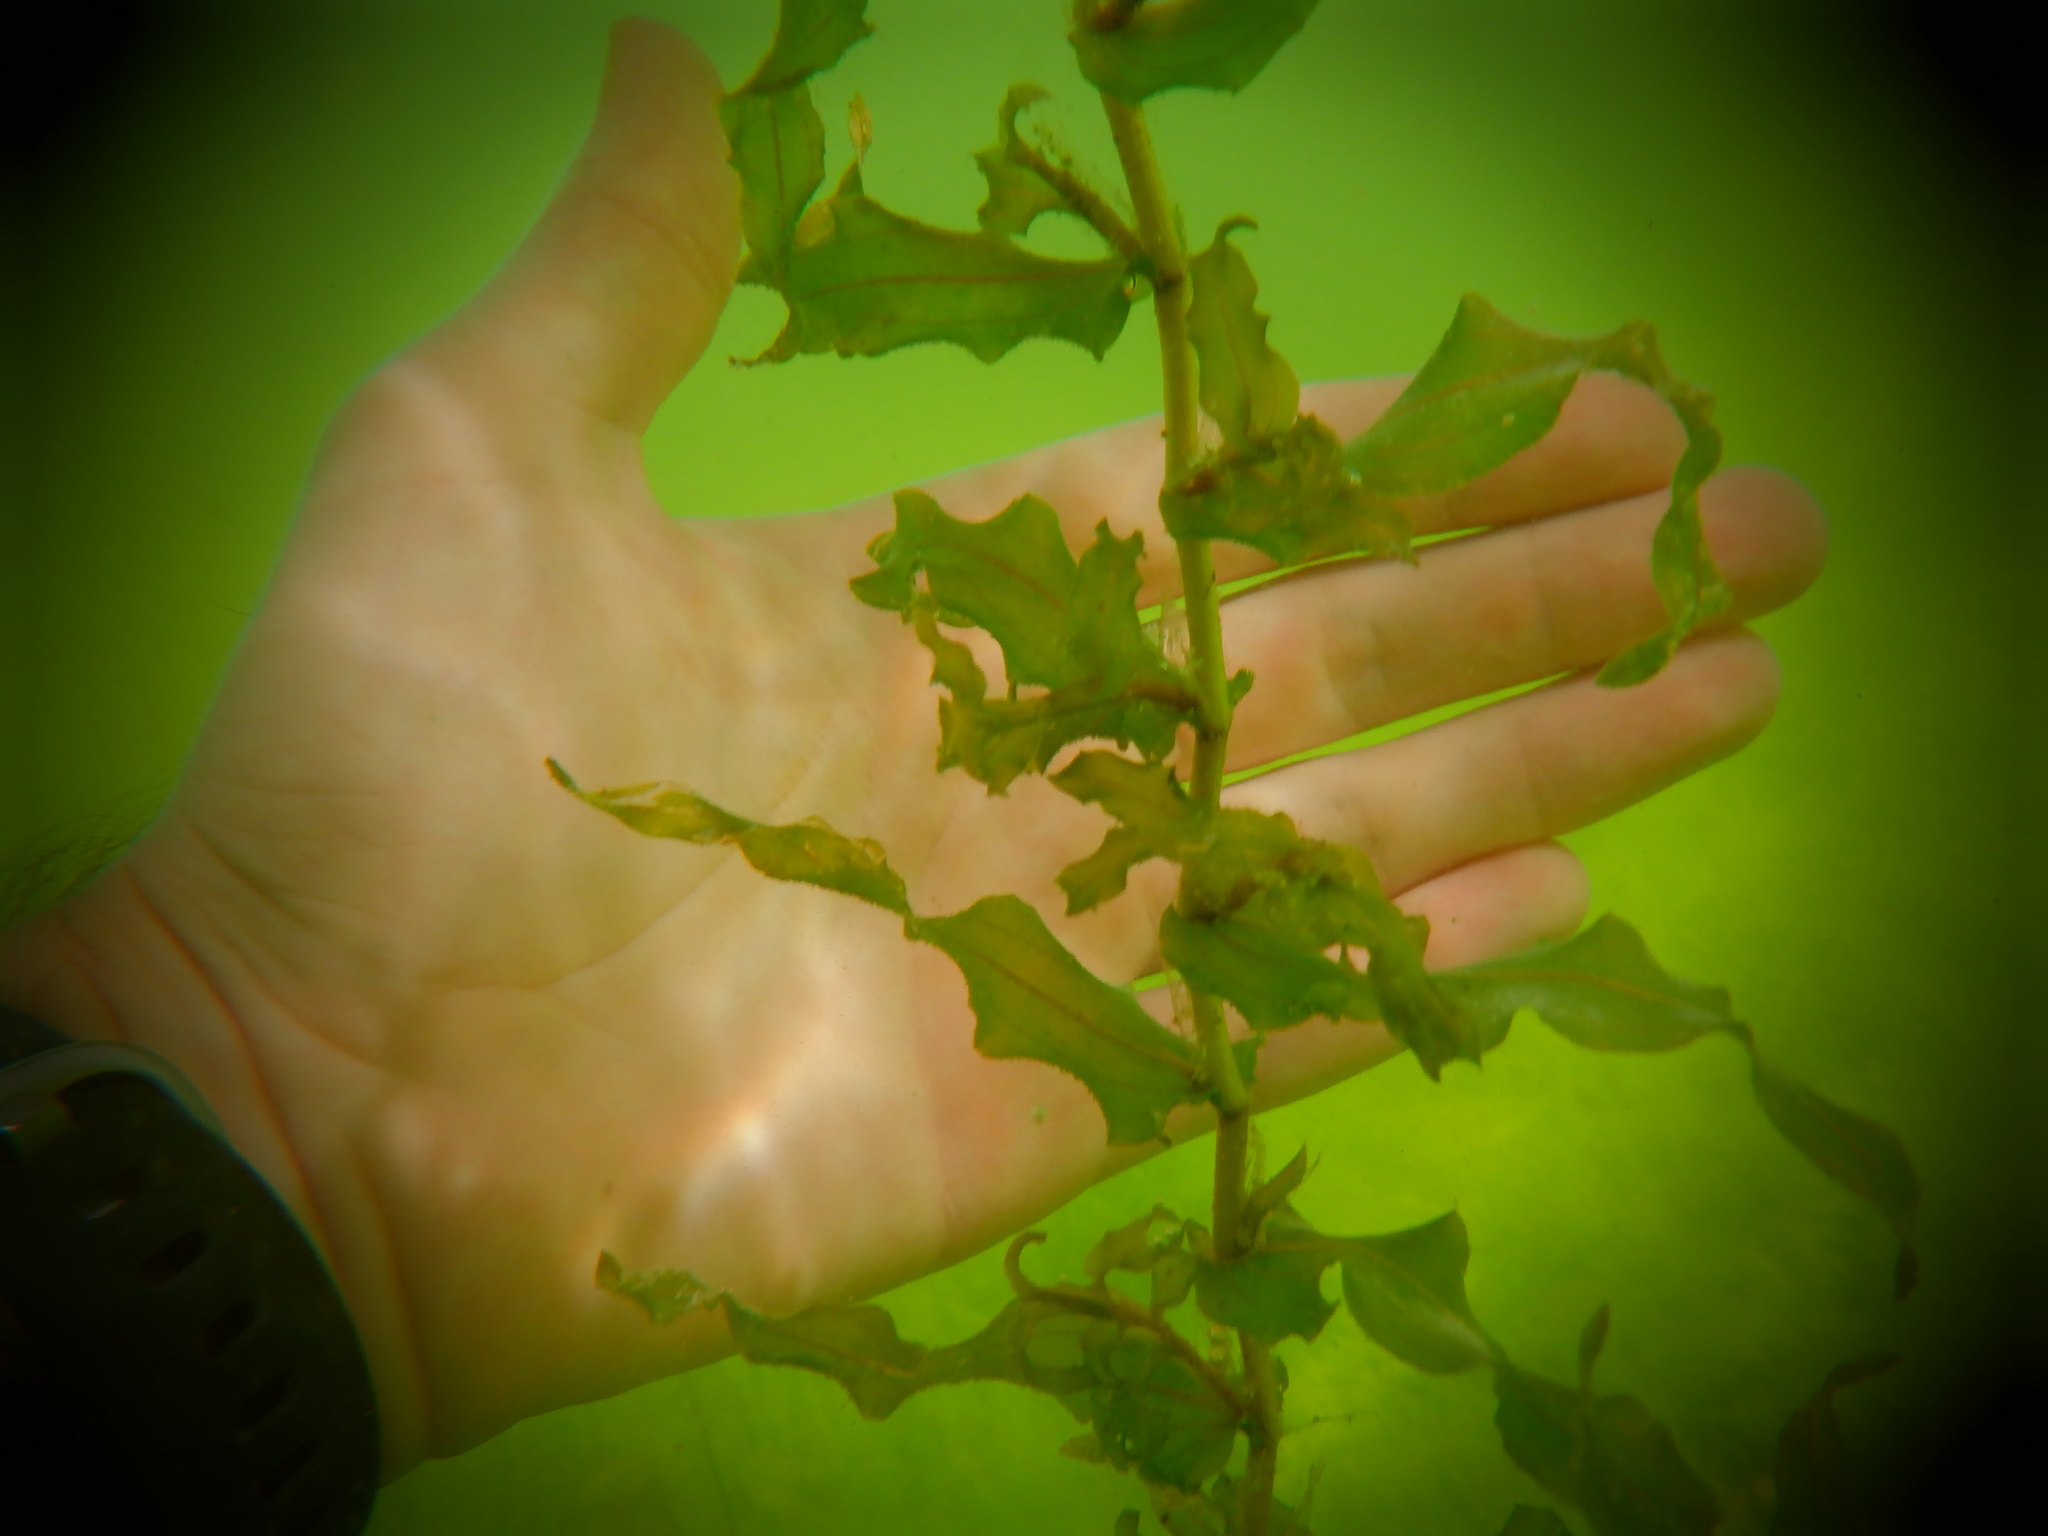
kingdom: Plantae
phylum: Tracheophyta
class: Liliopsida
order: Alismatales
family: Potamogetonaceae
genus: Potamogeton
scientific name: Potamogeton richardsonii
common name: Richardson's pondweed
